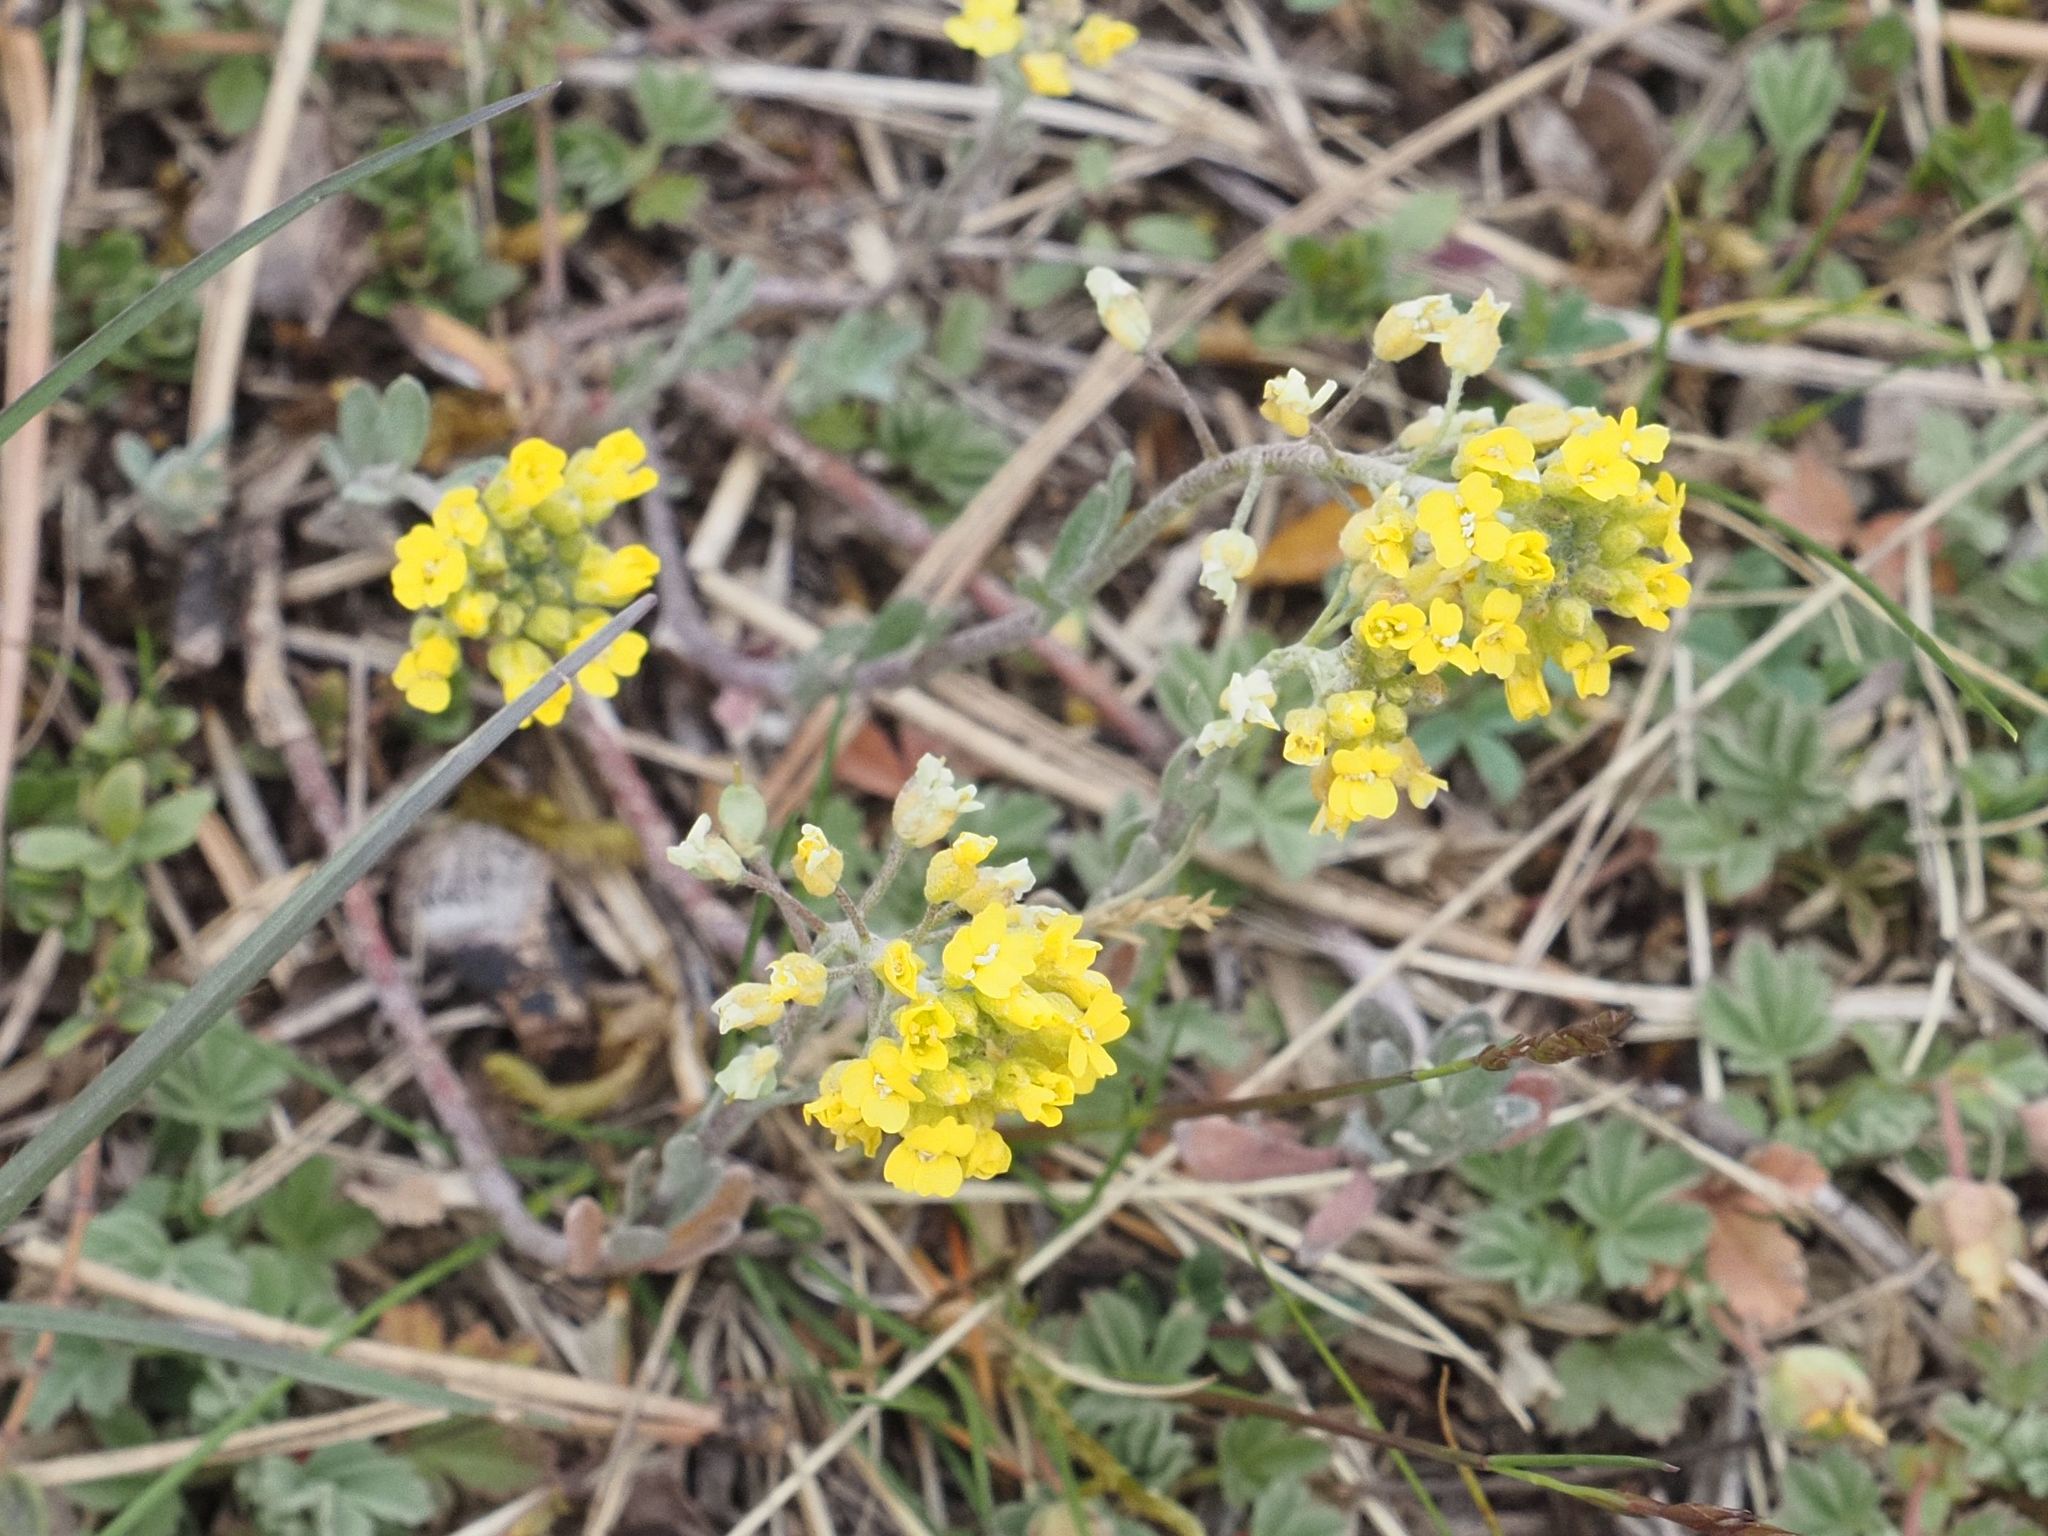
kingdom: Plantae
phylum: Tracheophyta
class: Magnoliopsida
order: Brassicales
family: Brassicaceae
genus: Alyssum
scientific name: Alyssum gmelinii
